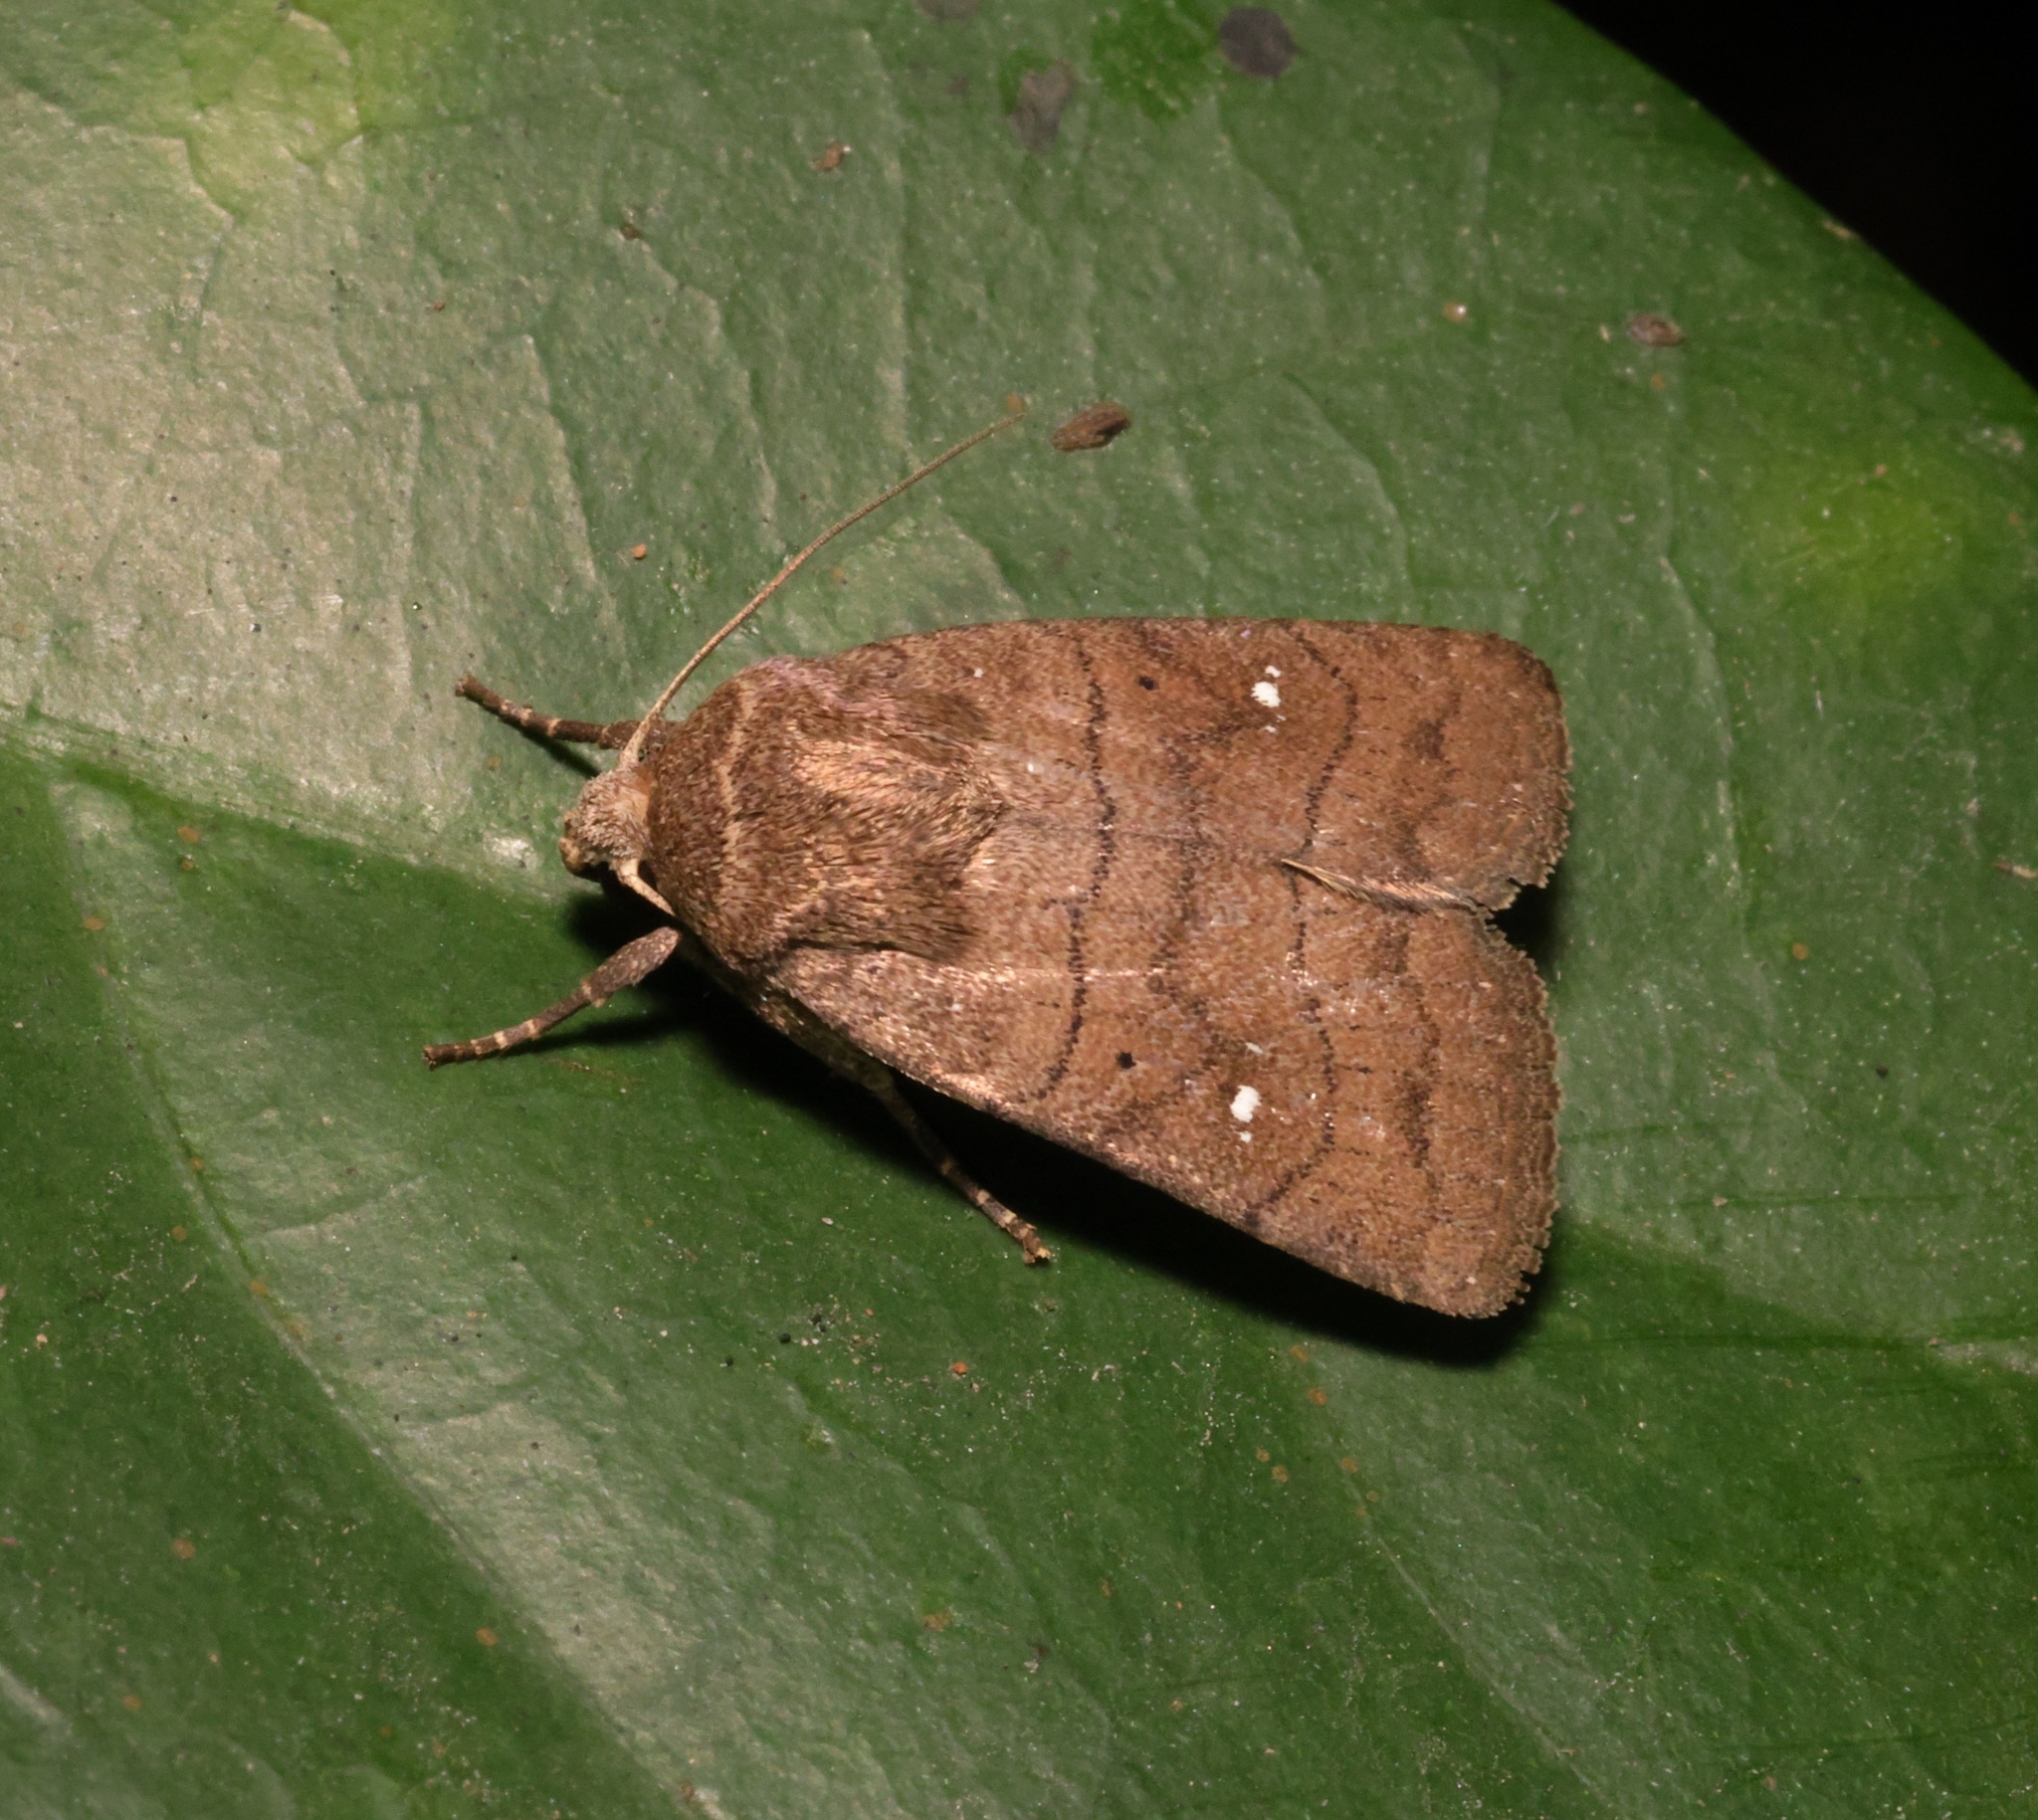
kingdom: Animalia
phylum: Arthropoda
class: Insecta
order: Lepidoptera
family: Noctuidae
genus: Athetis
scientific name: Athetis hongkongensis
